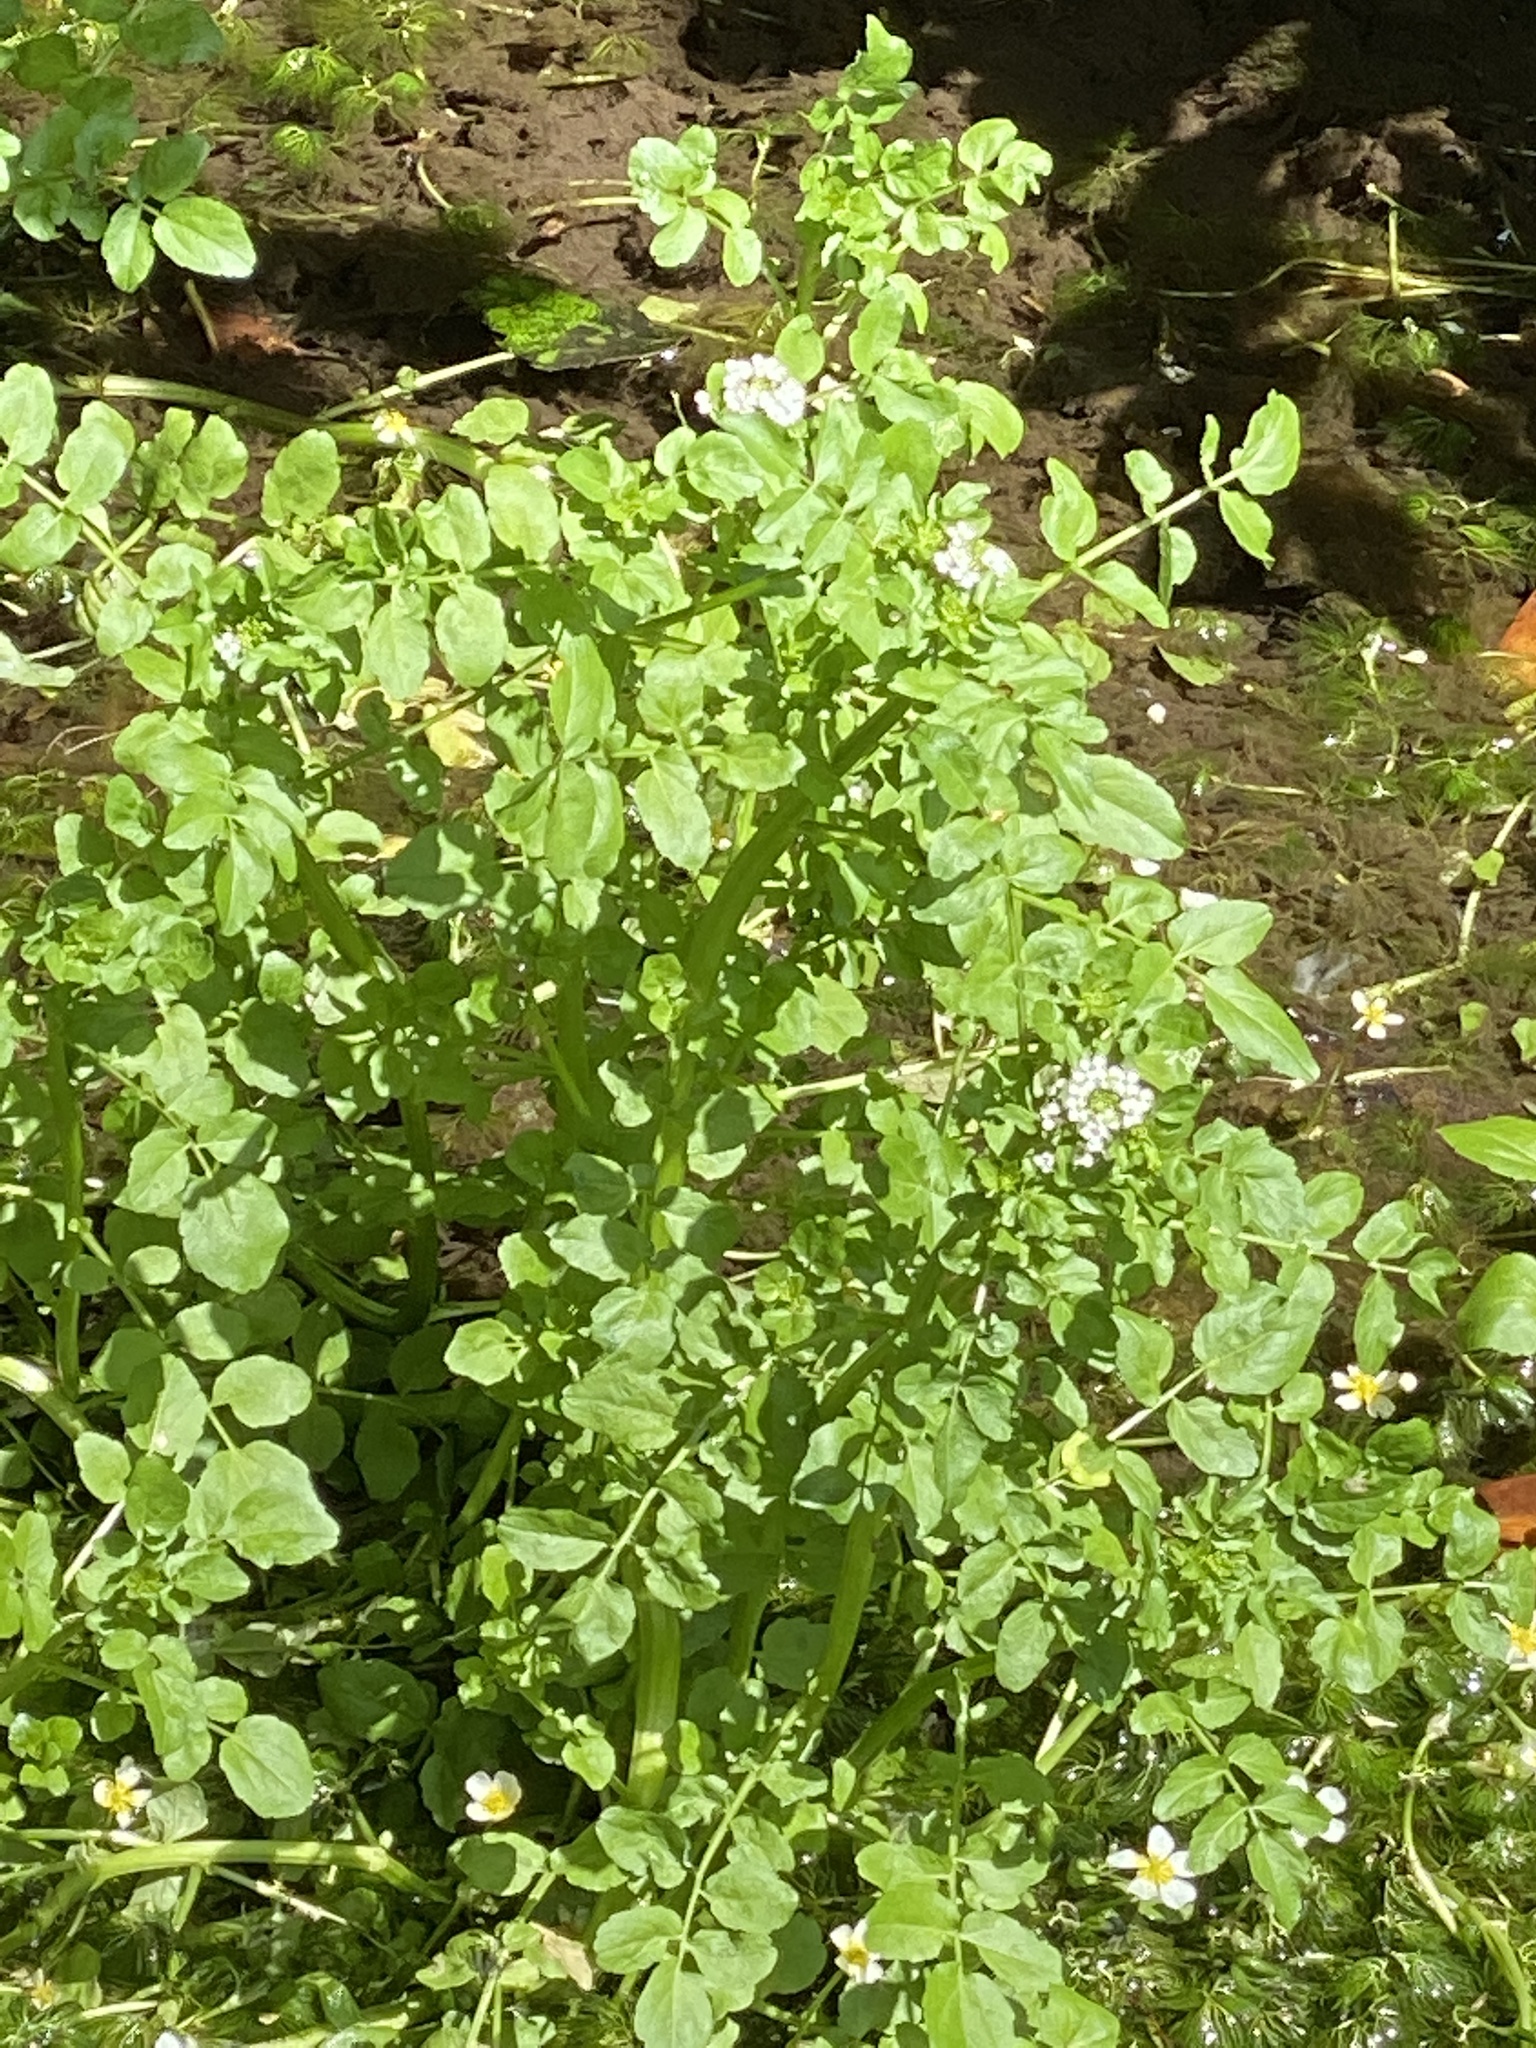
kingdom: Plantae
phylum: Tracheophyta
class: Magnoliopsida
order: Brassicales
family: Brassicaceae
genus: Nasturtium
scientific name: Nasturtium officinale
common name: Watercress
